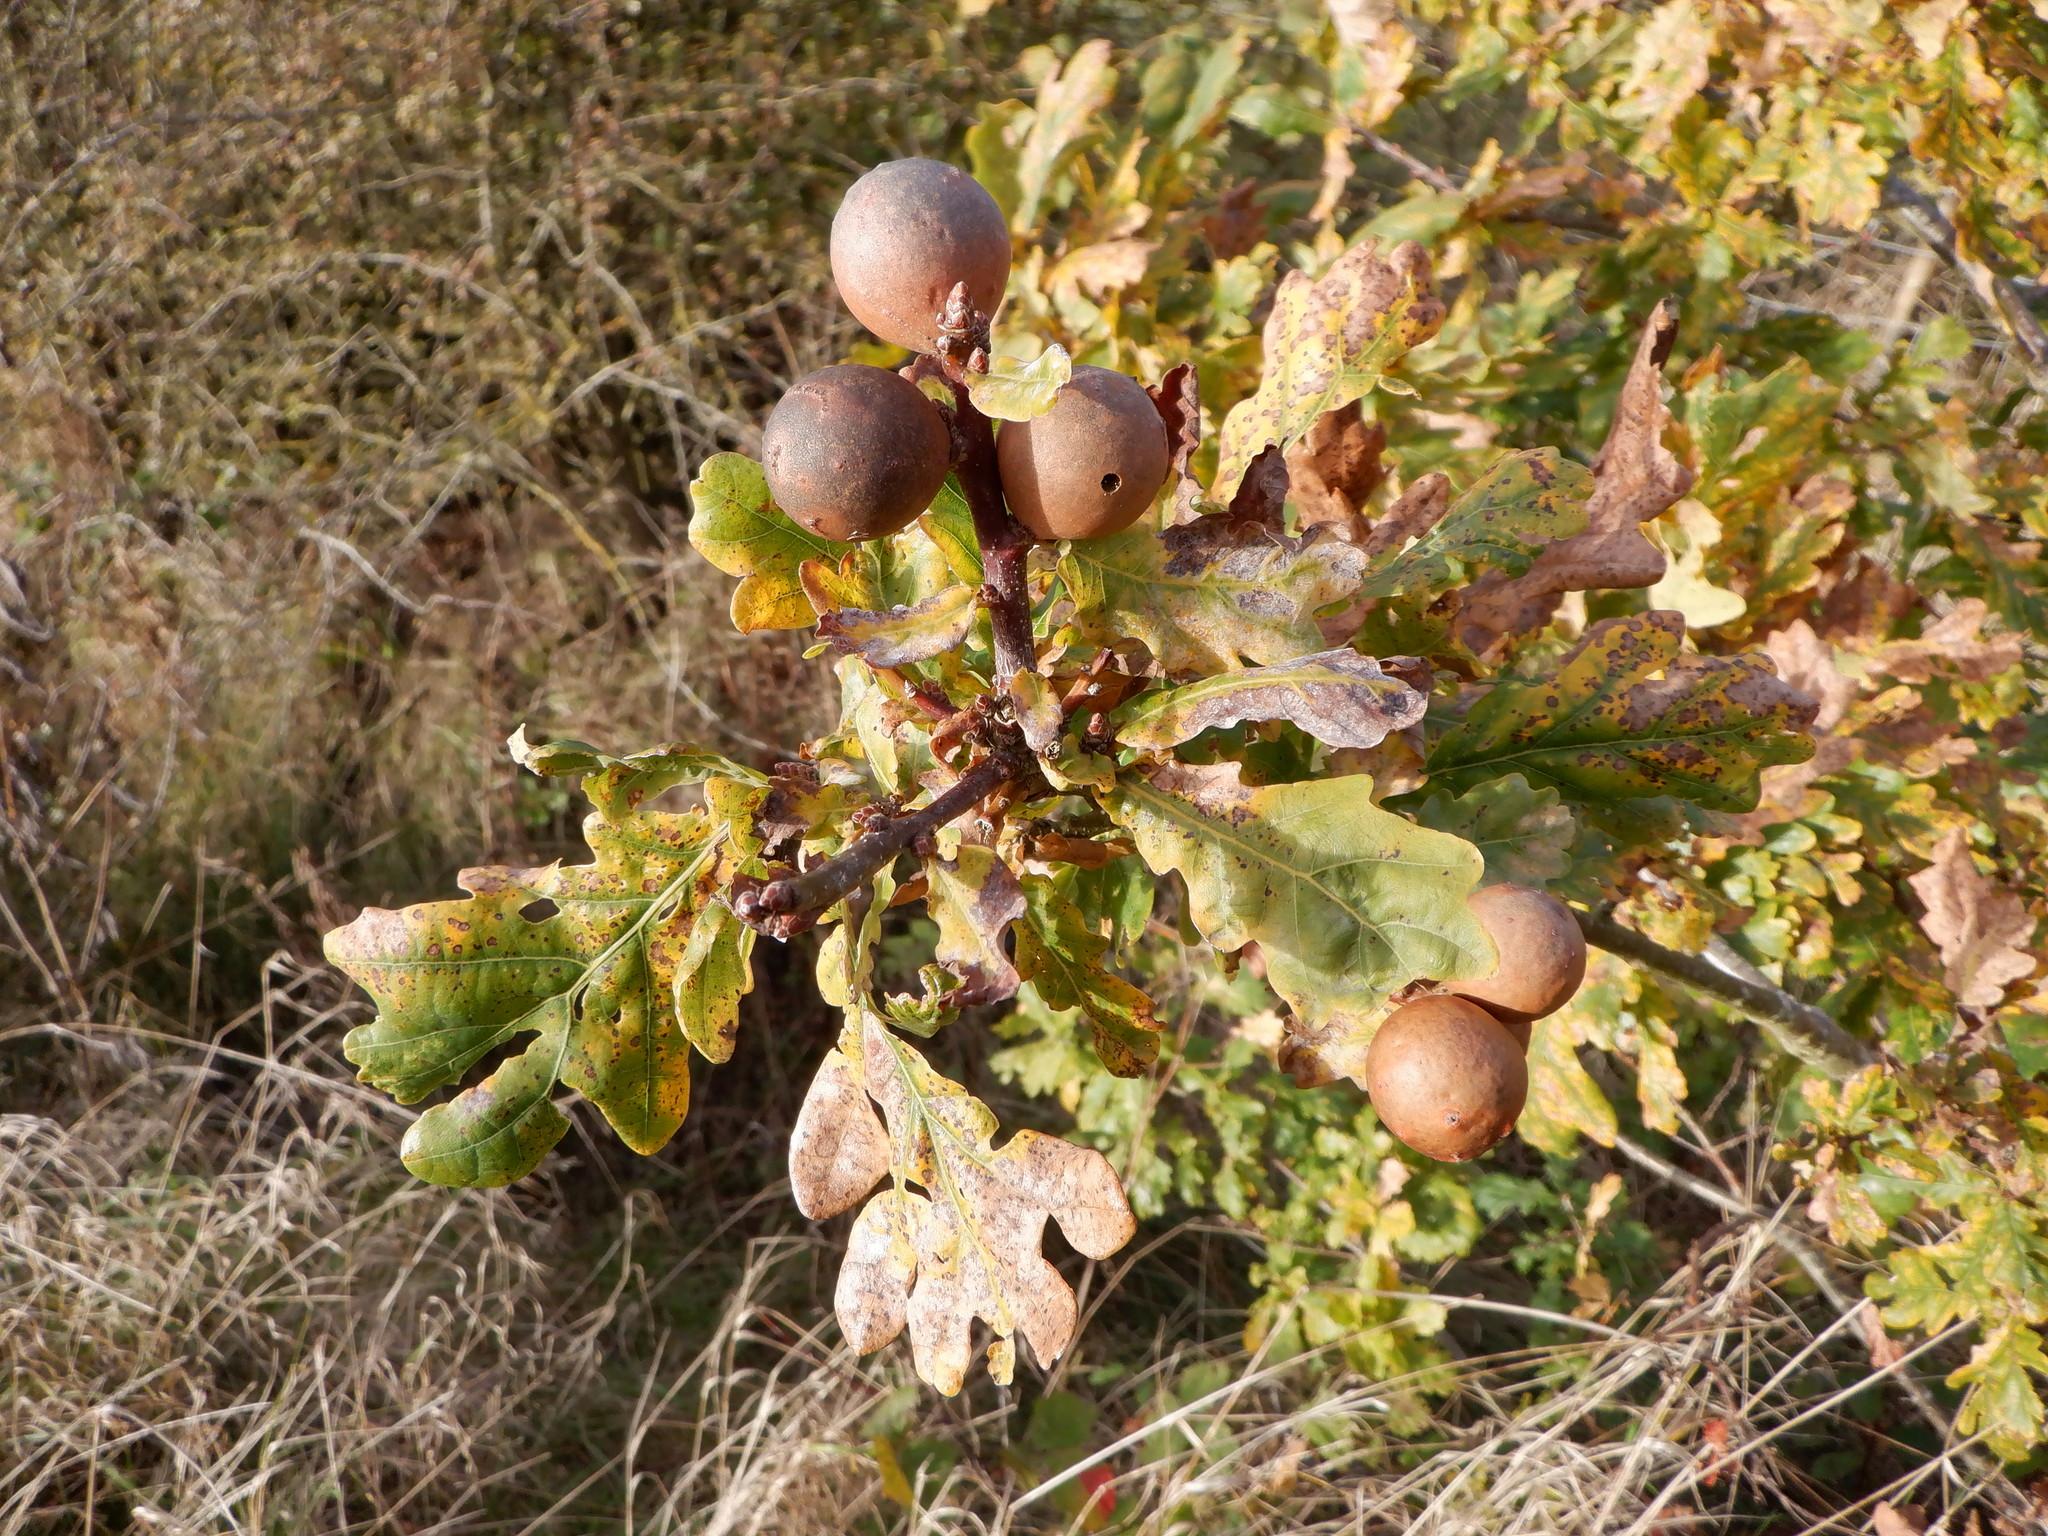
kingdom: Animalia
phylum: Arthropoda
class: Insecta
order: Hymenoptera
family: Cynipidae
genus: Andricus
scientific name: Andricus kollari
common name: Marble gall
